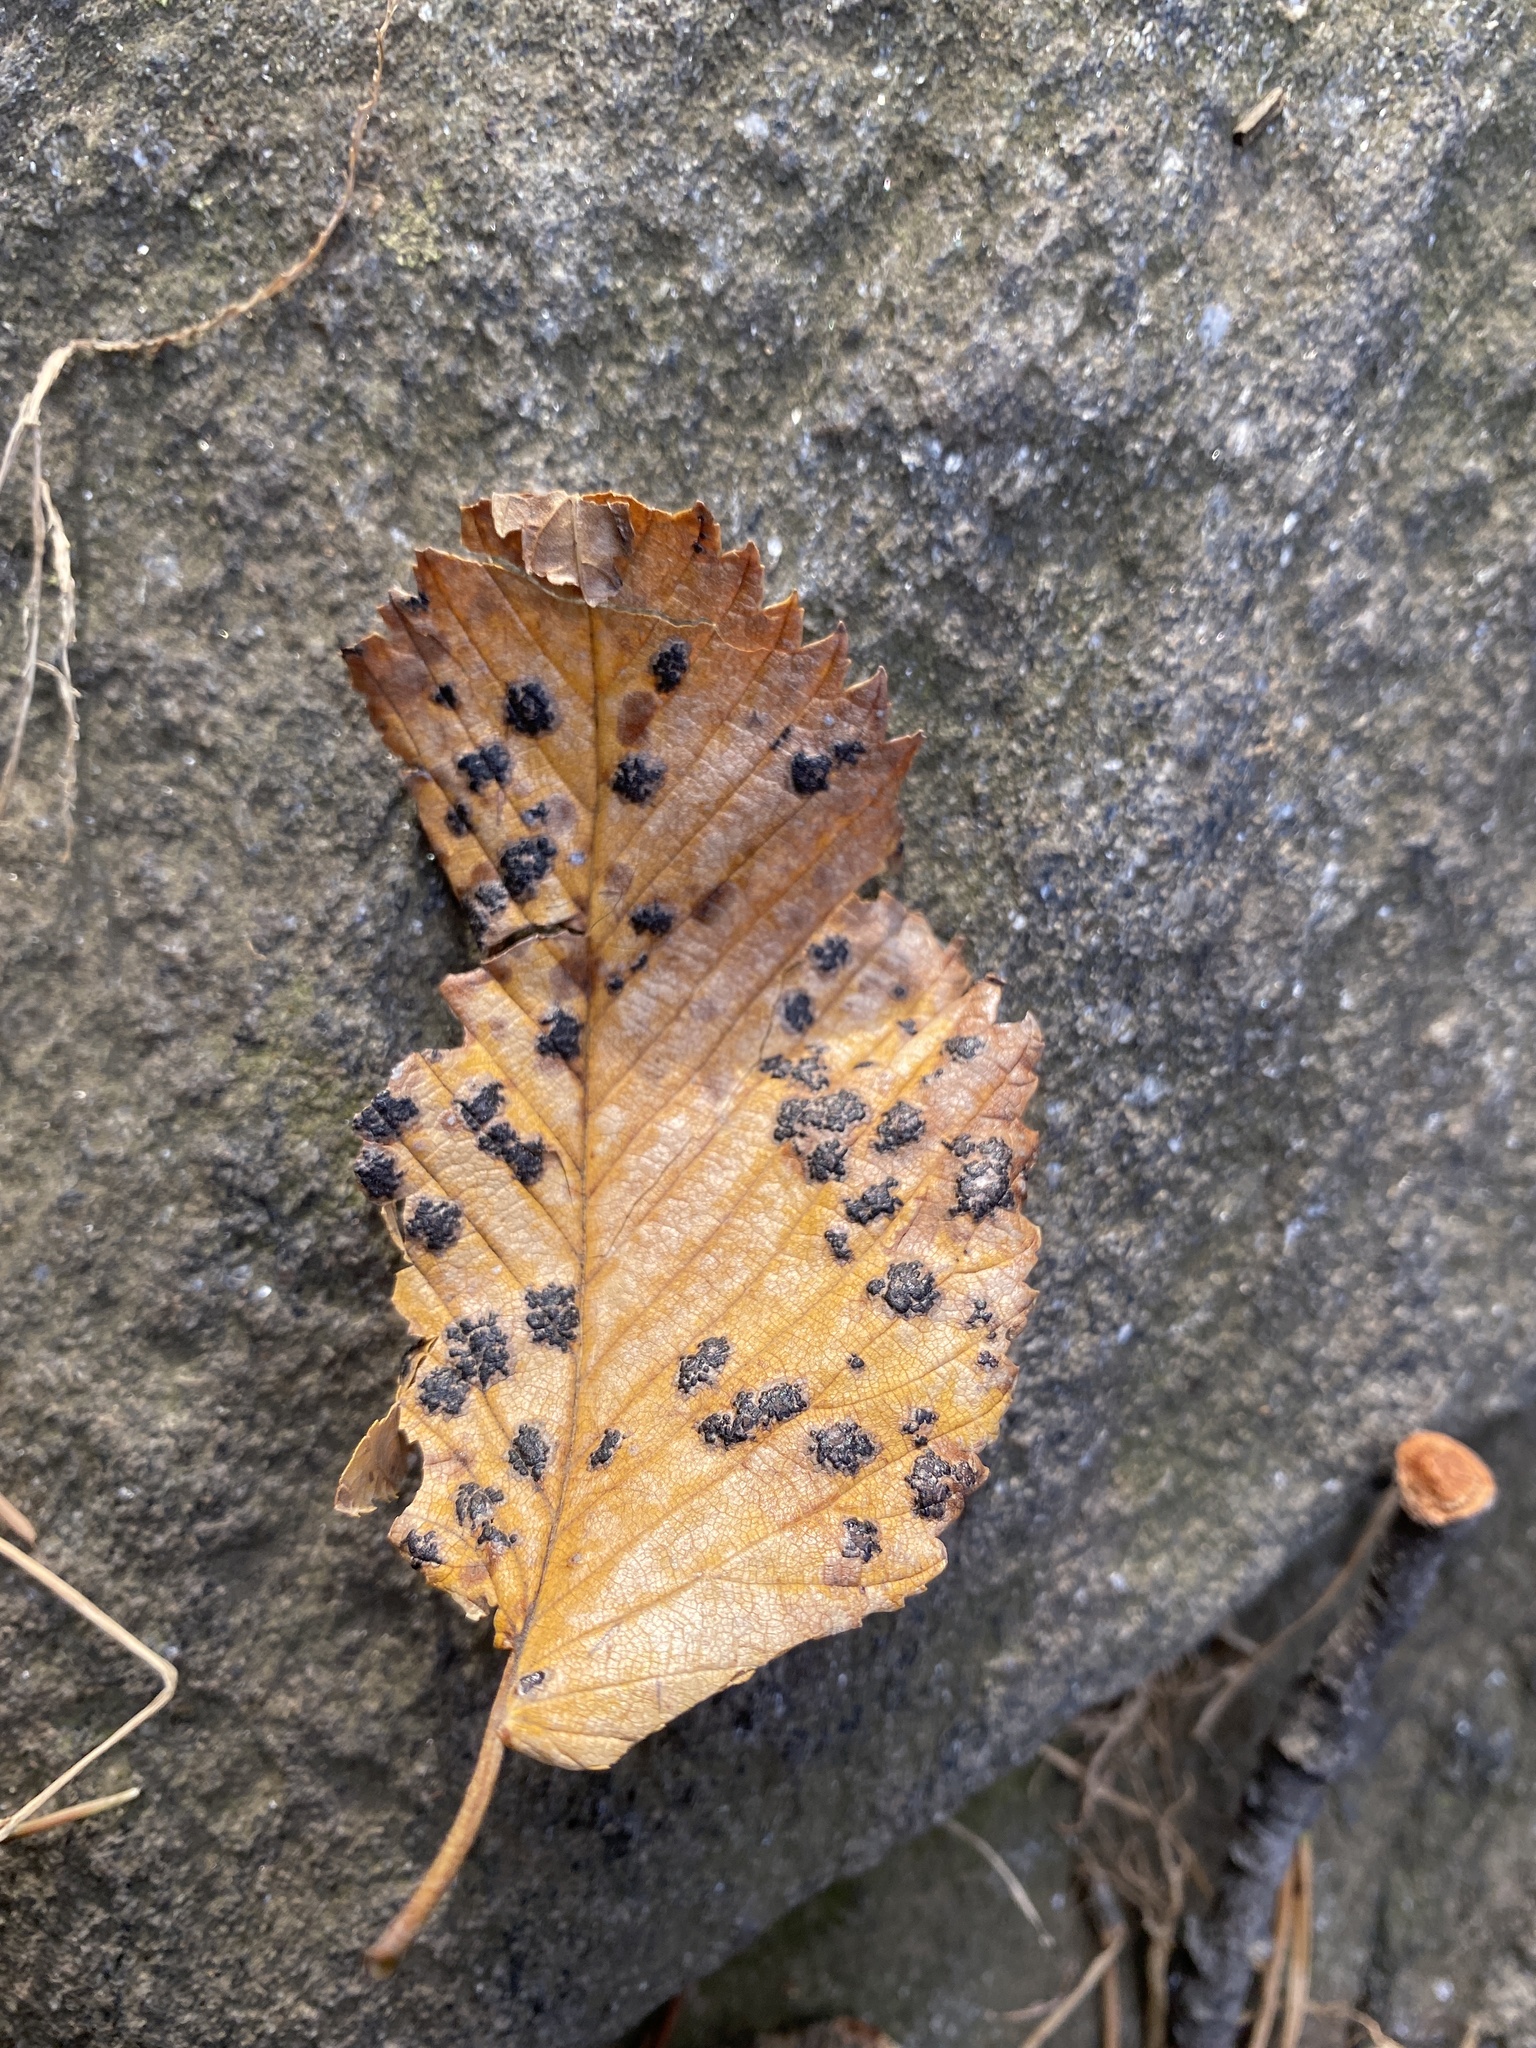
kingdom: Fungi
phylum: Ascomycota
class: Dothideomycetes
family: Polystomellaceae
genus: Dothidella
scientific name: Dothidella ulmi
